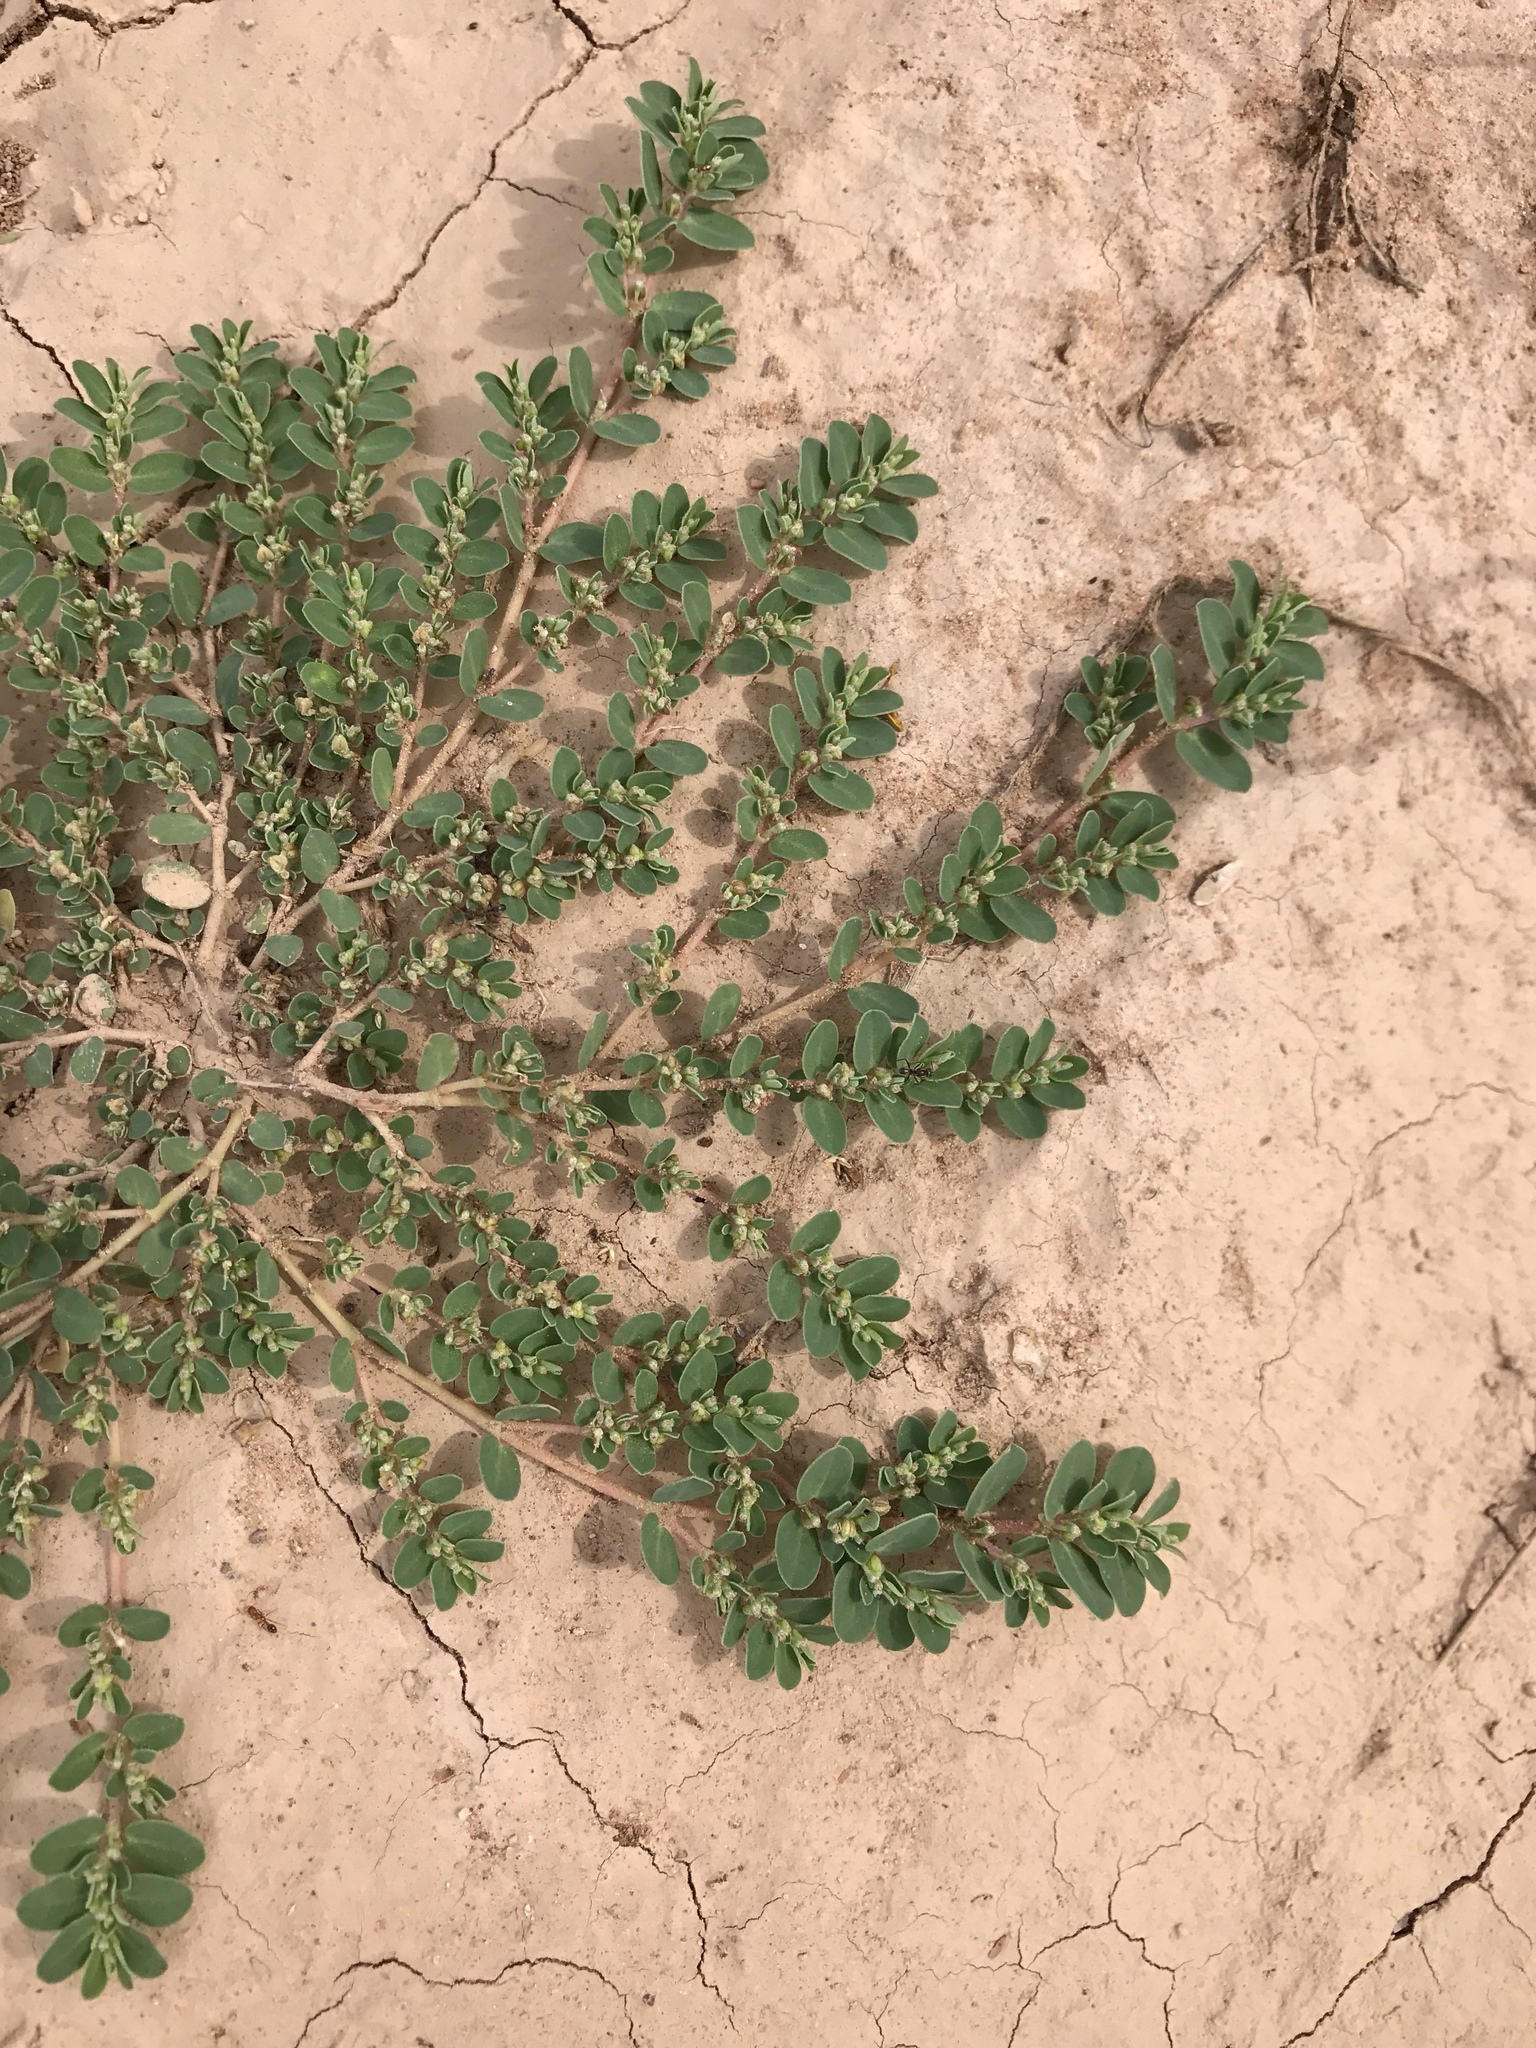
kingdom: Plantae
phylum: Tracheophyta
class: Magnoliopsida
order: Malpighiales
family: Euphorbiaceae
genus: Euphorbia
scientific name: Euphorbia prostrata
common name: Prostrate sandmat
